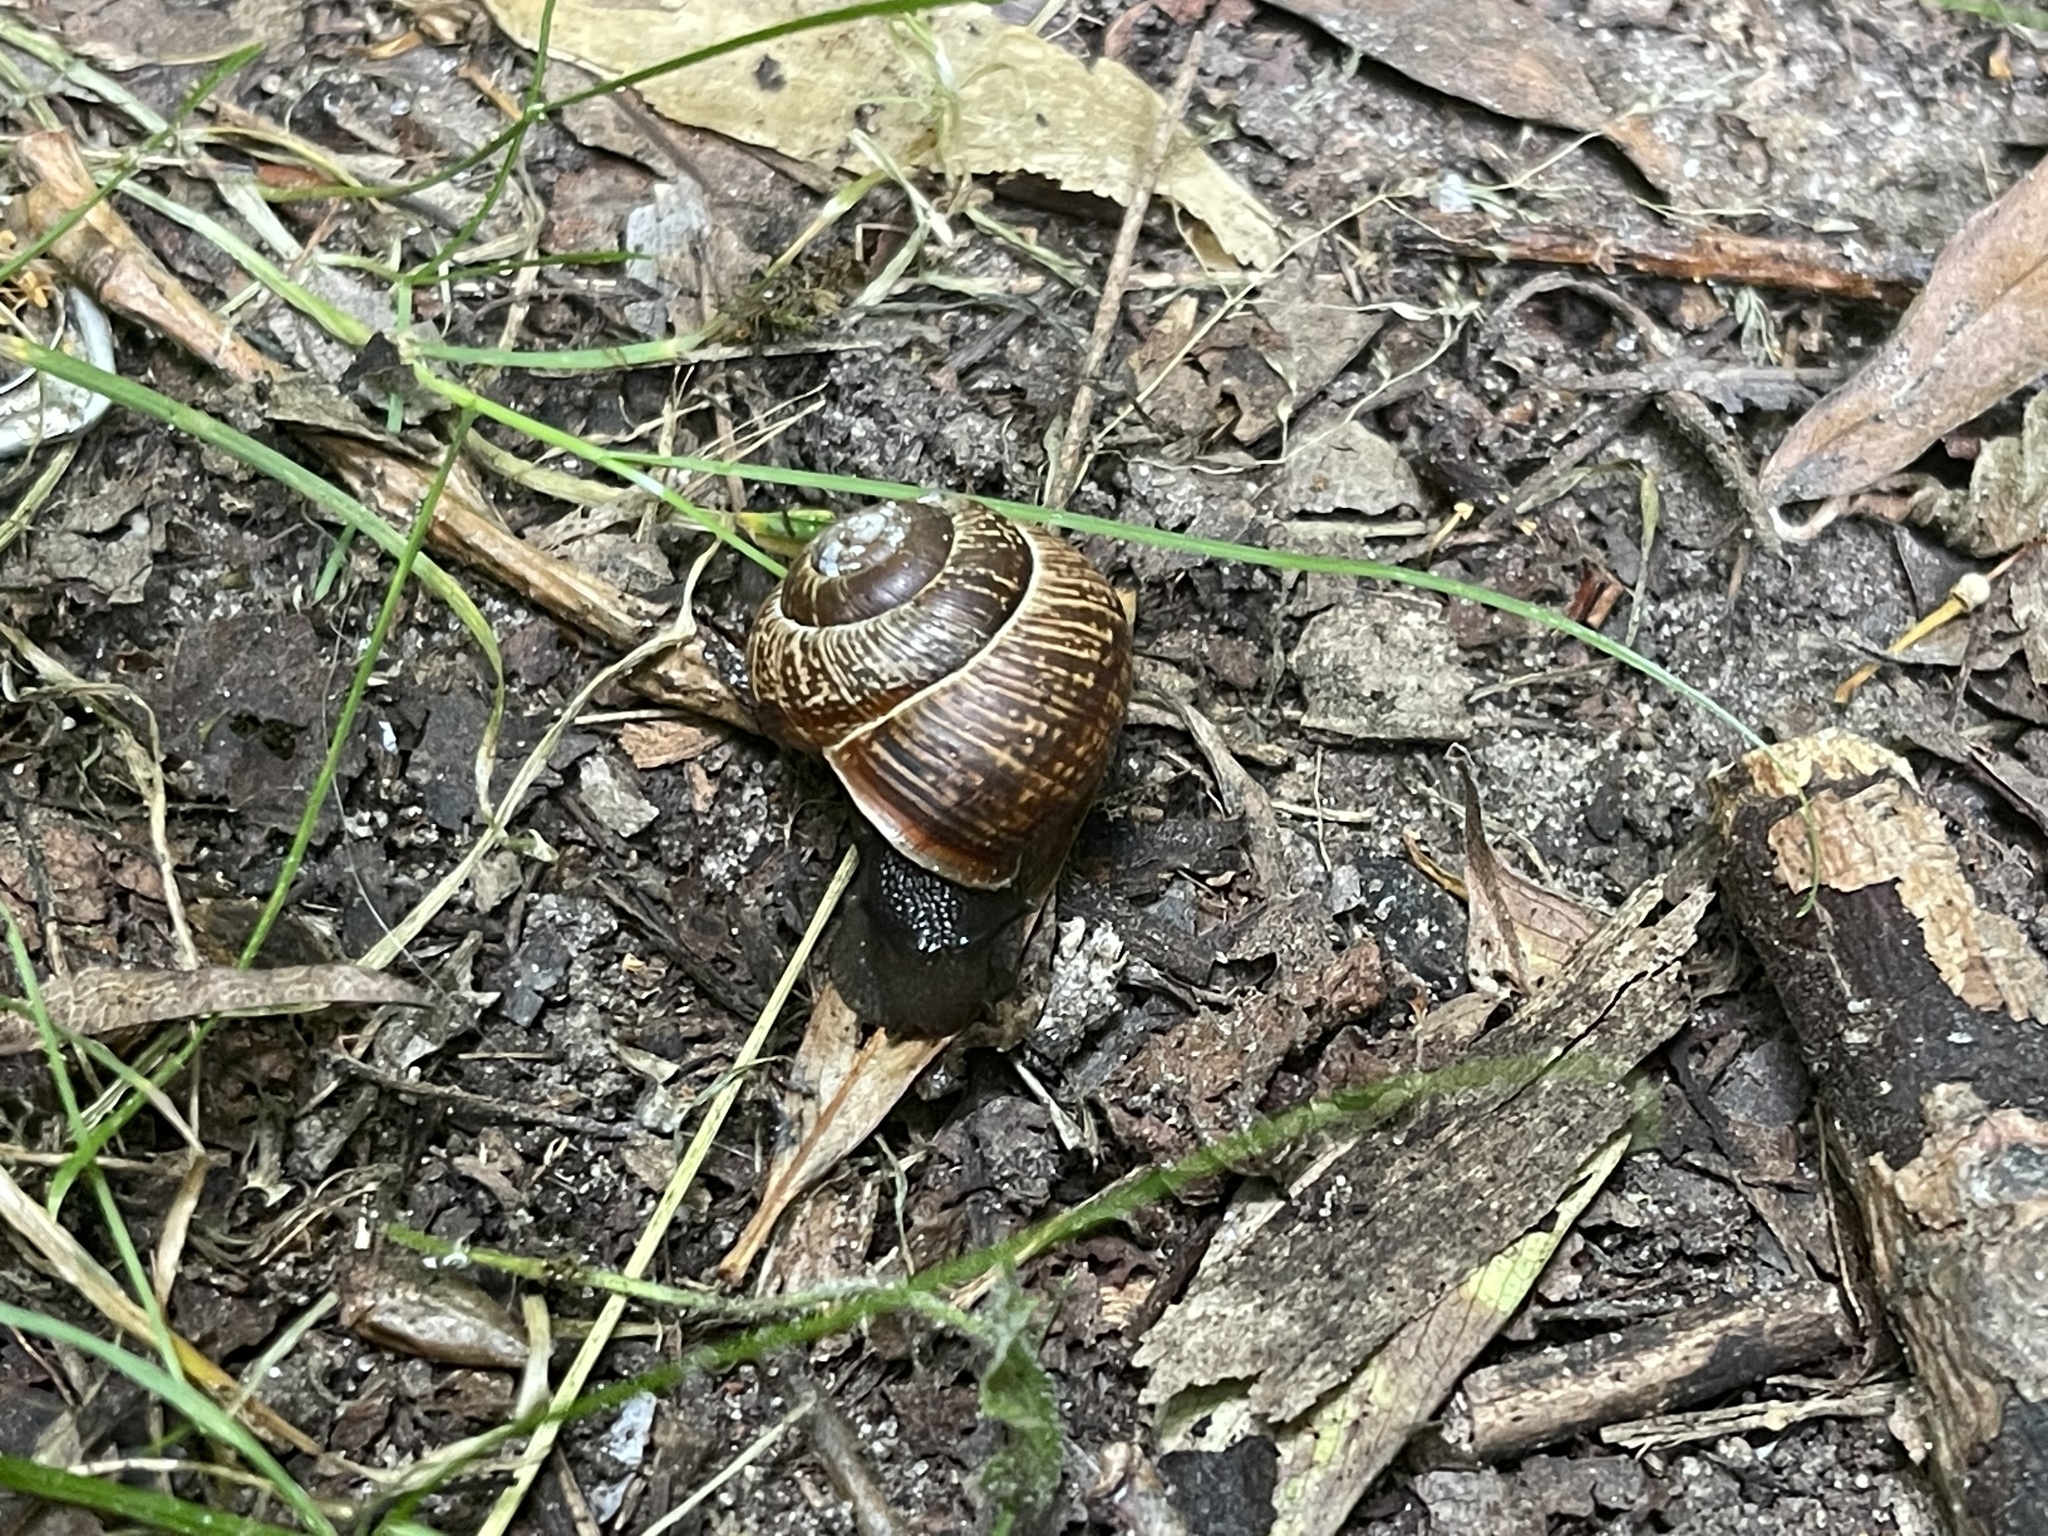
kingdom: Animalia
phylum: Mollusca
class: Gastropoda
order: Stylommatophora
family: Helicidae
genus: Arianta
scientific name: Arianta arbustorum
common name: Copse snail
